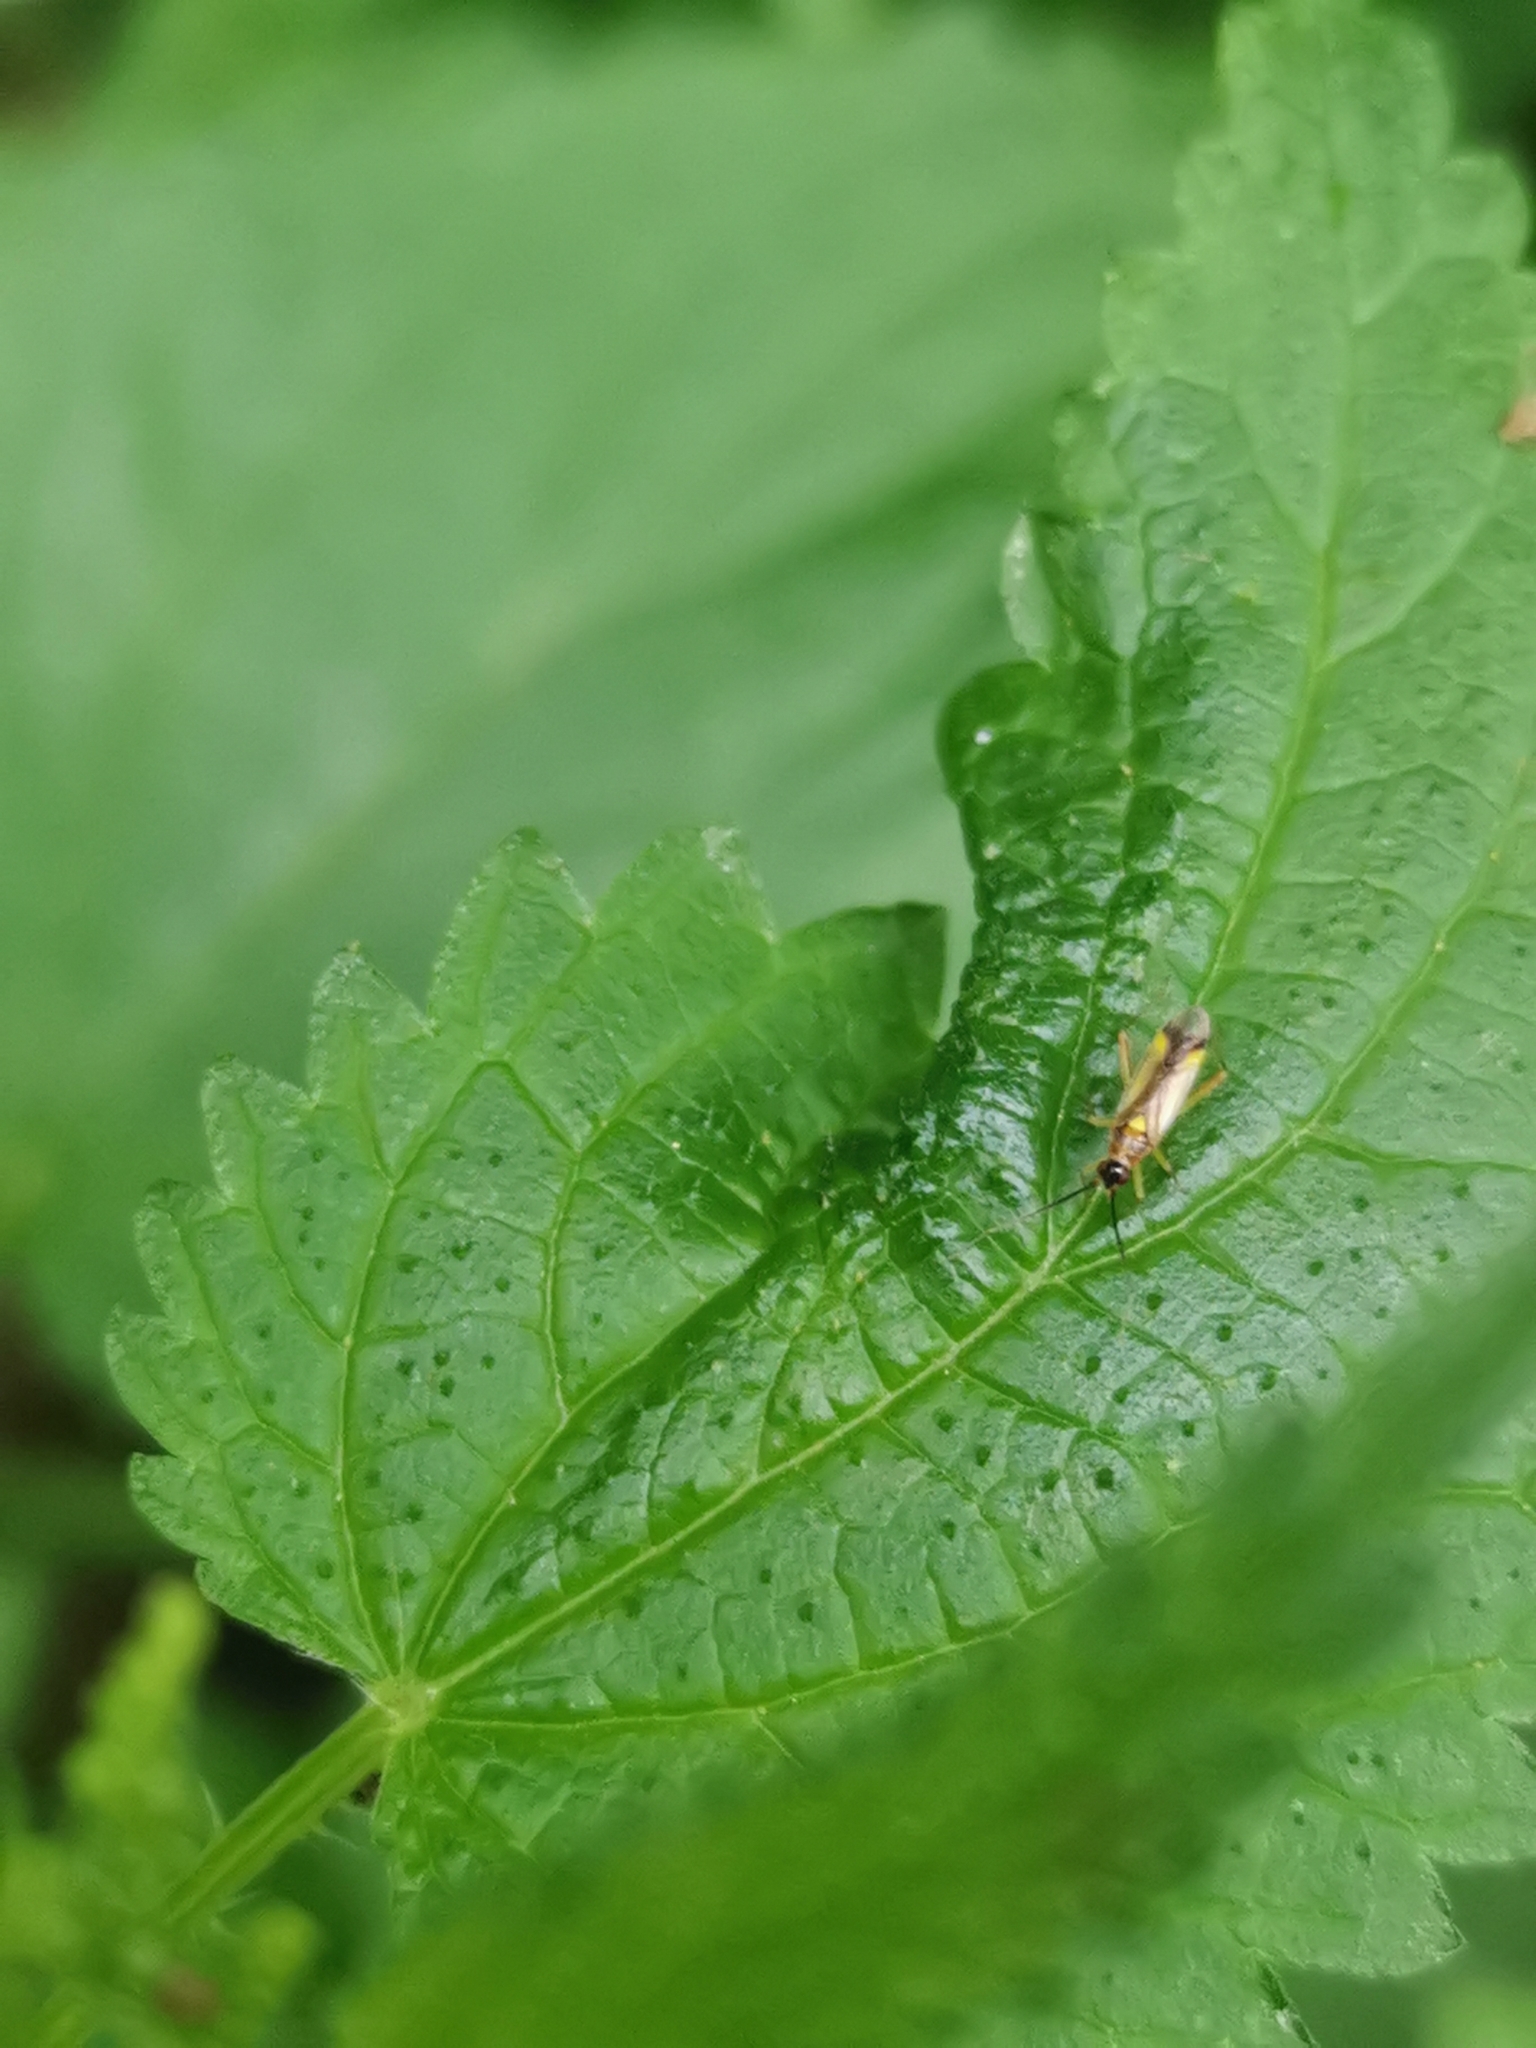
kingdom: Animalia
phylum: Arthropoda
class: Insecta
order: Hemiptera
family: Miridae
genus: Campyloneura
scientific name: Campyloneura virgula
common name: Predatory bug
